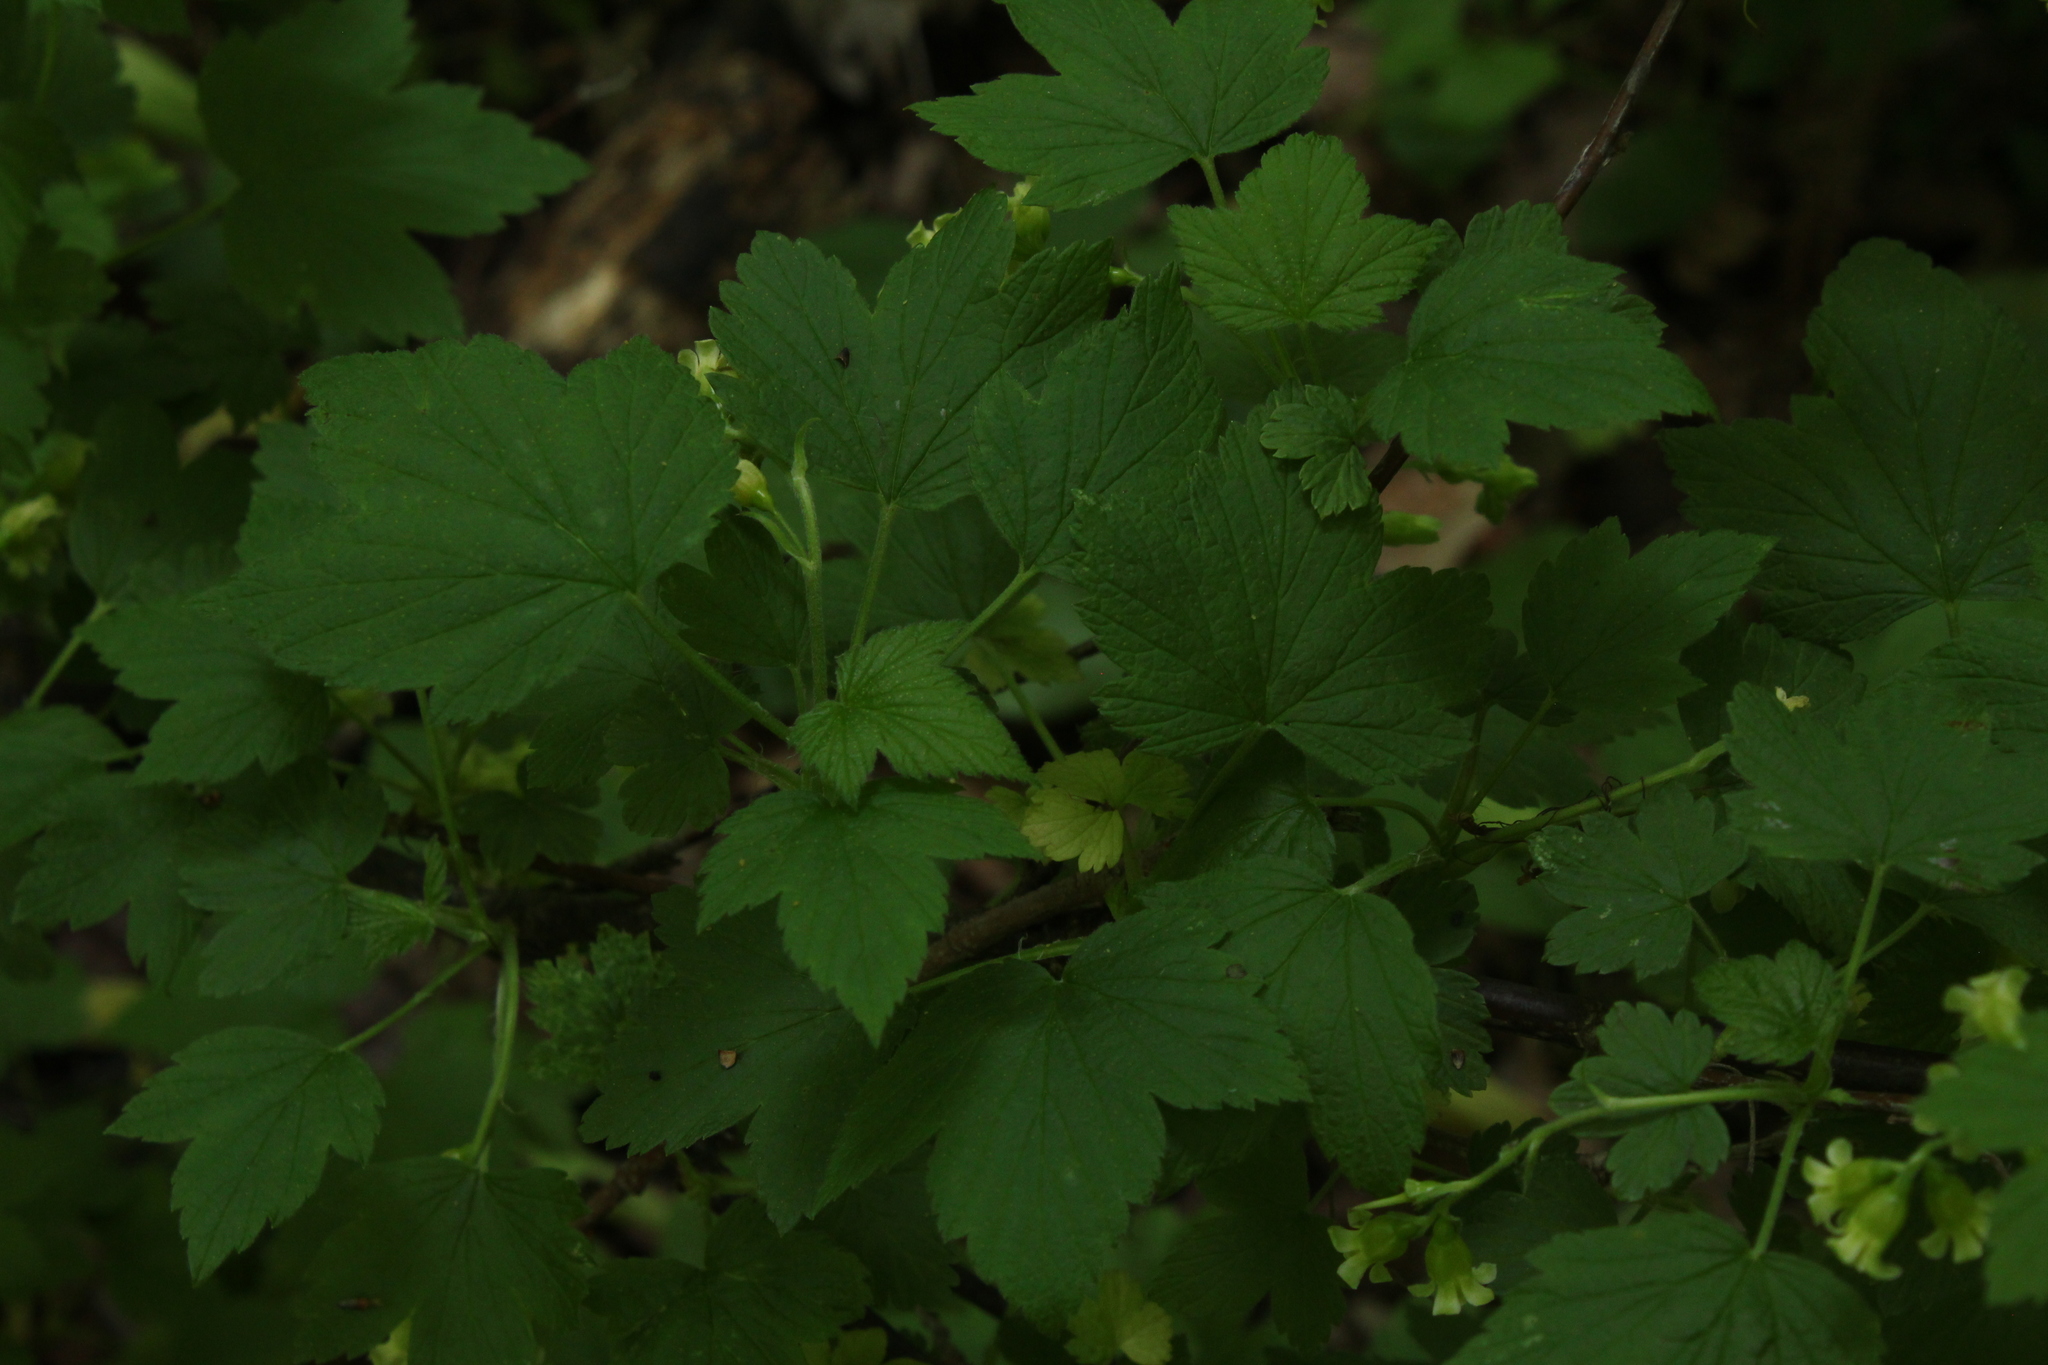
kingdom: Plantae
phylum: Tracheophyta
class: Magnoliopsida
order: Saxifragales
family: Grossulariaceae
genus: Ribes
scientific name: Ribes americanum
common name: American black currant
